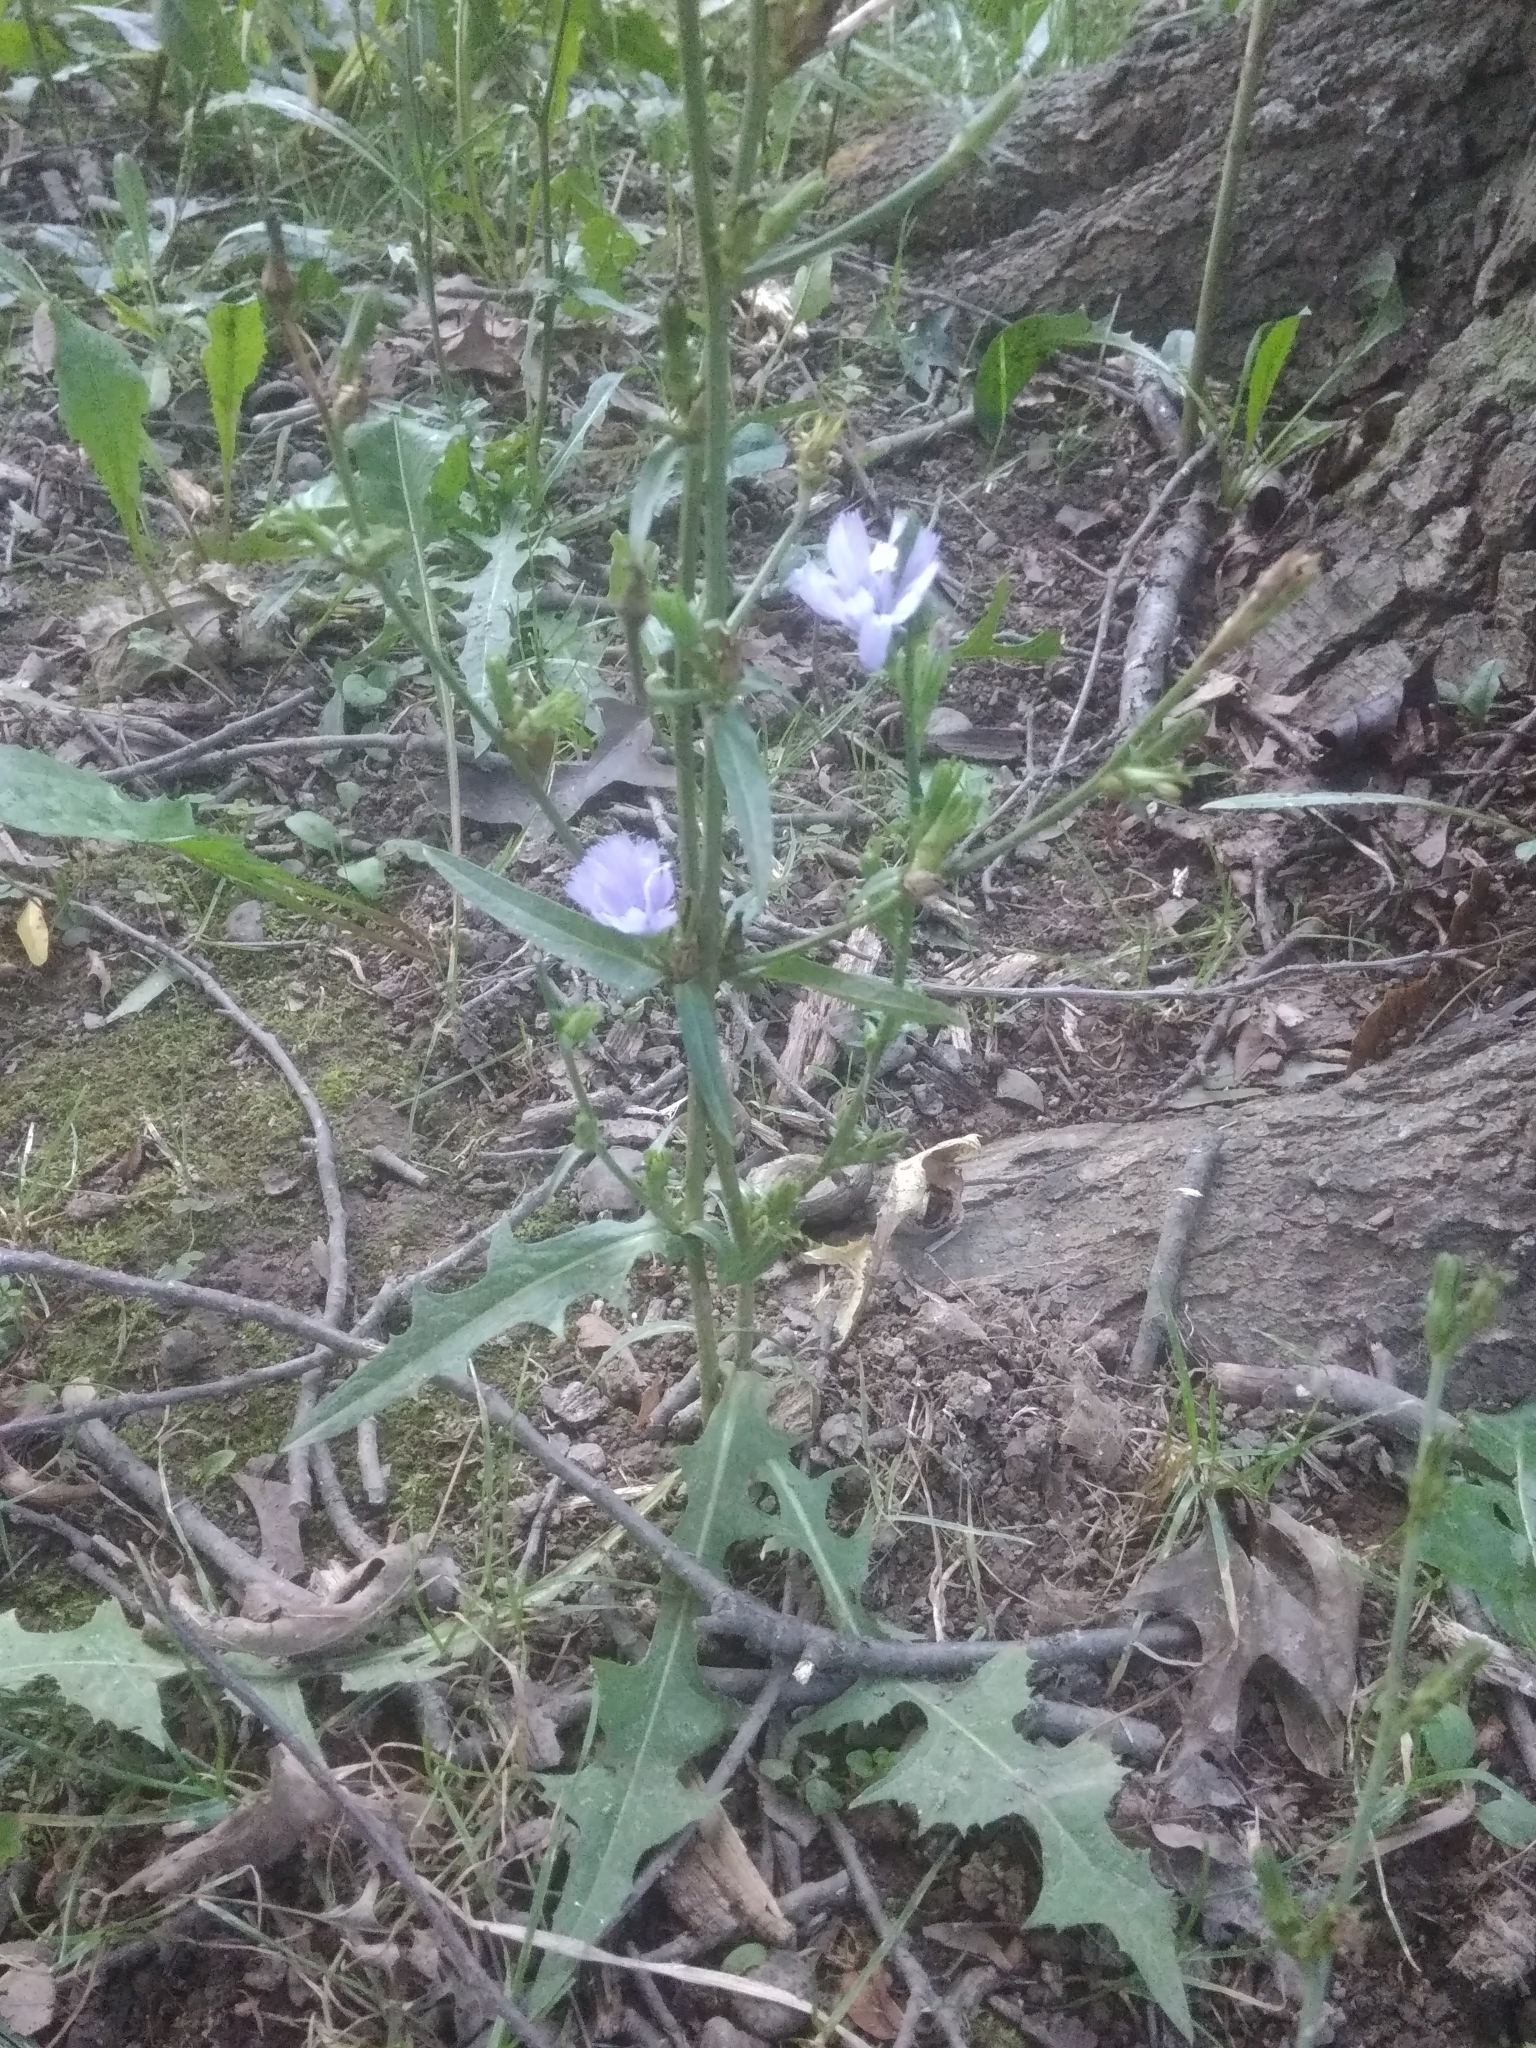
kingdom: Plantae
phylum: Tracheophyta
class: Magnoliopsida
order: Asterales
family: Asteraceae
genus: Cichorium
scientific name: Cichorium intybus
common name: Chicory
